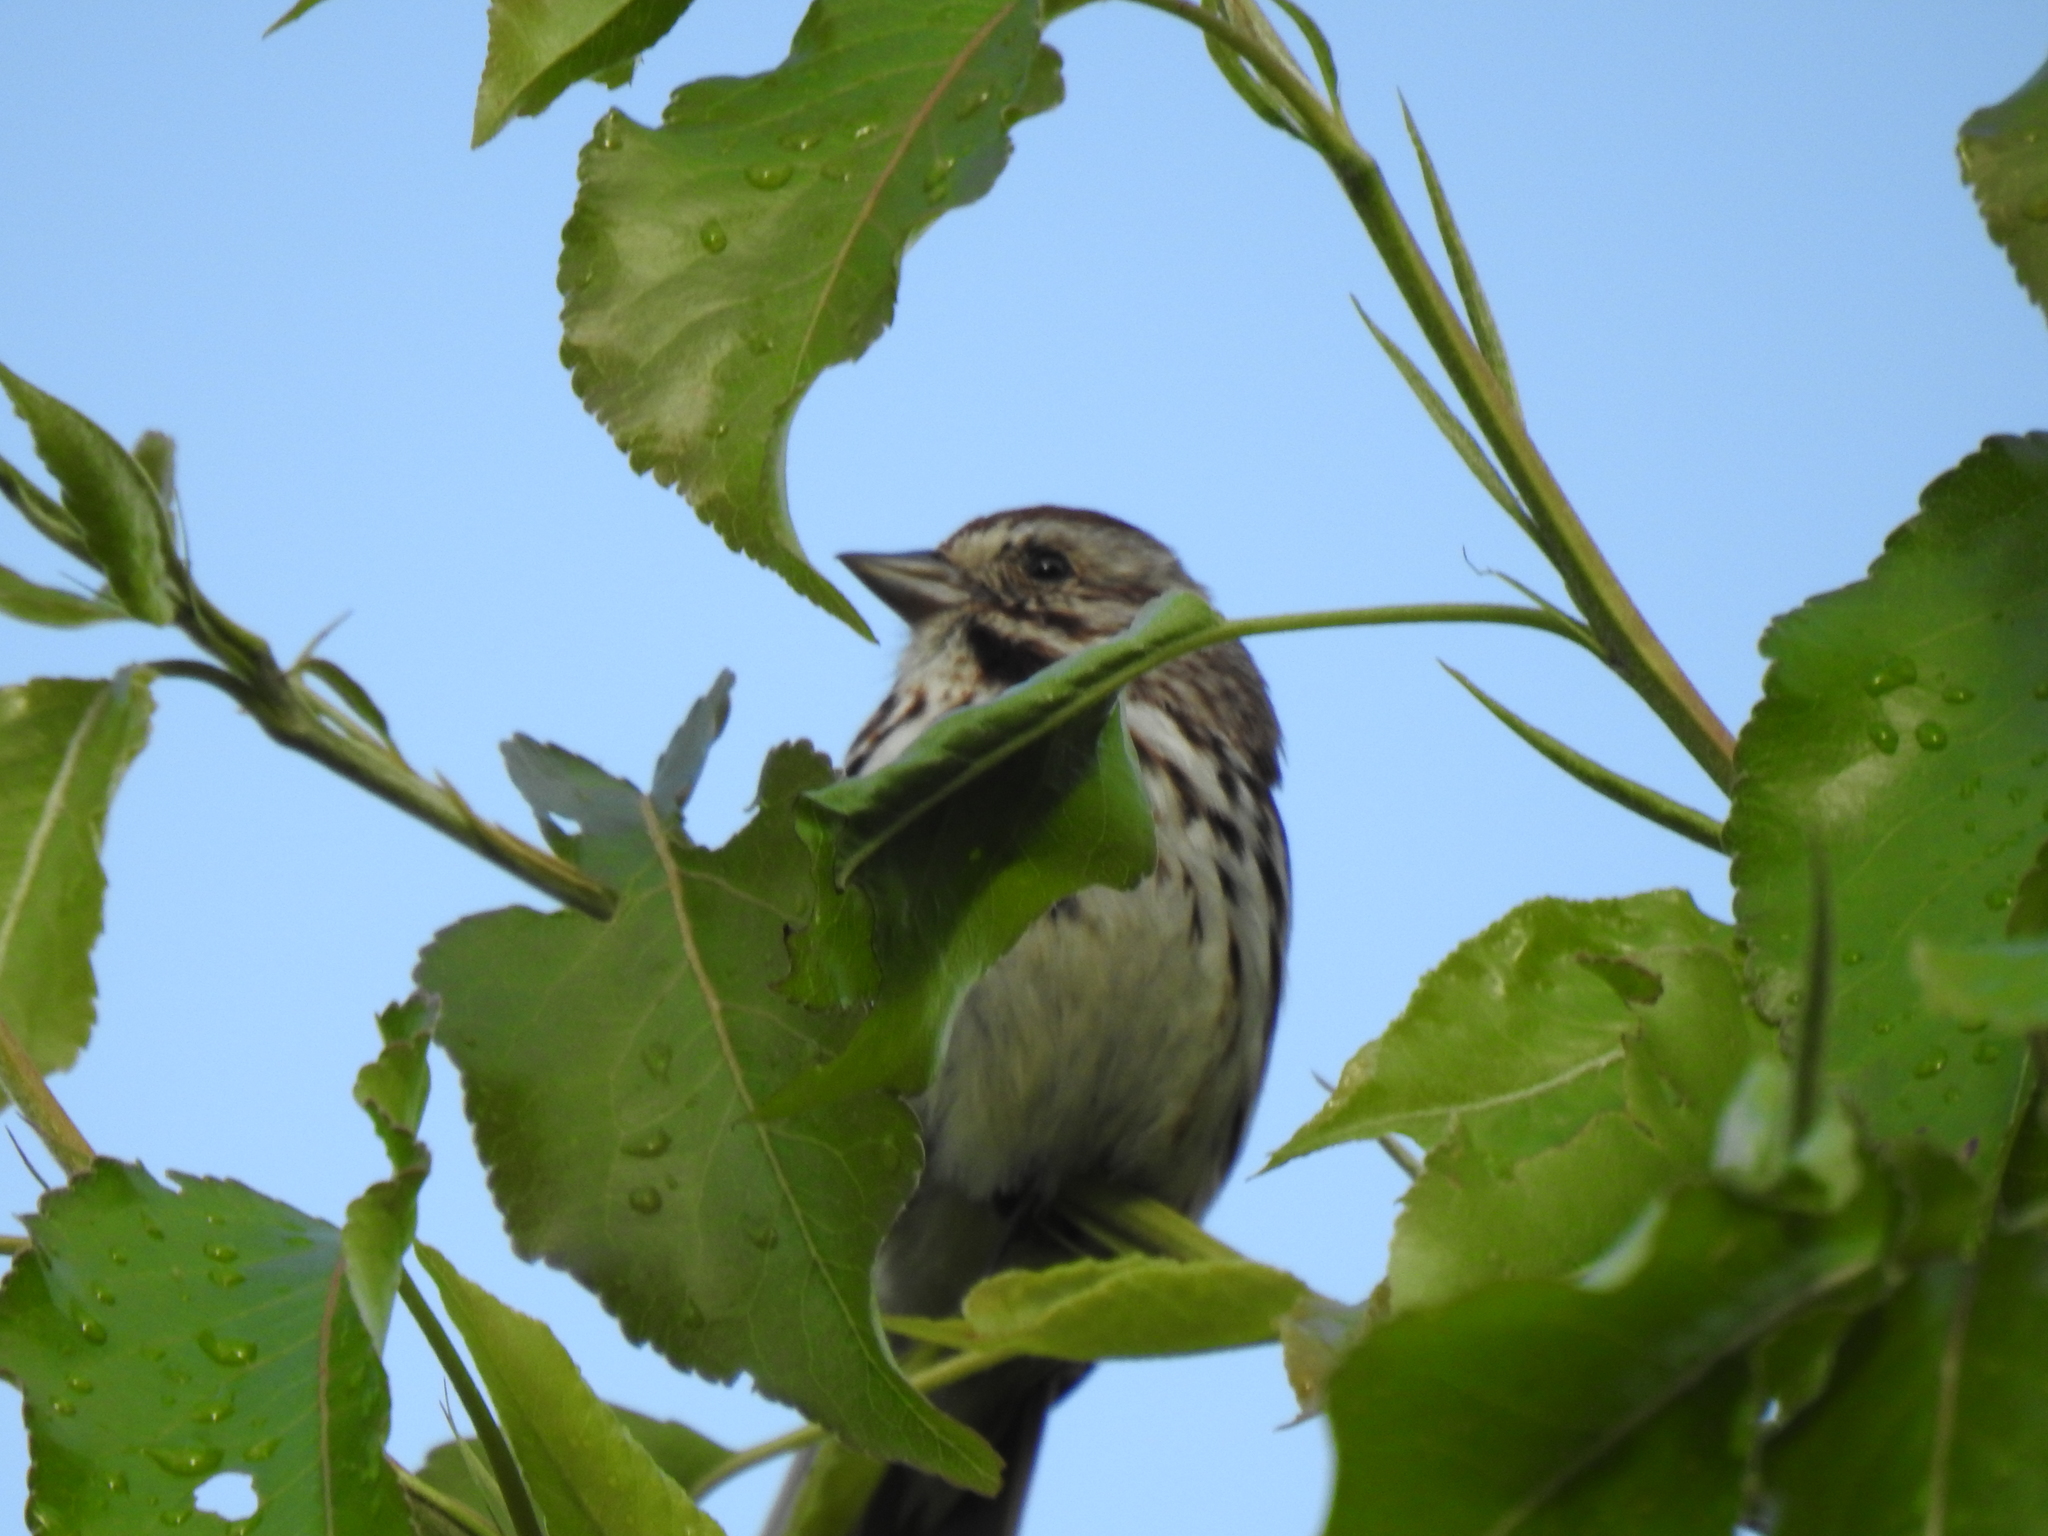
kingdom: Animalia
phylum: Chordata
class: Aves
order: Passeriformes
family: Passerellidae
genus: Melospiza
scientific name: Melospiza melodia
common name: Song sparrow
